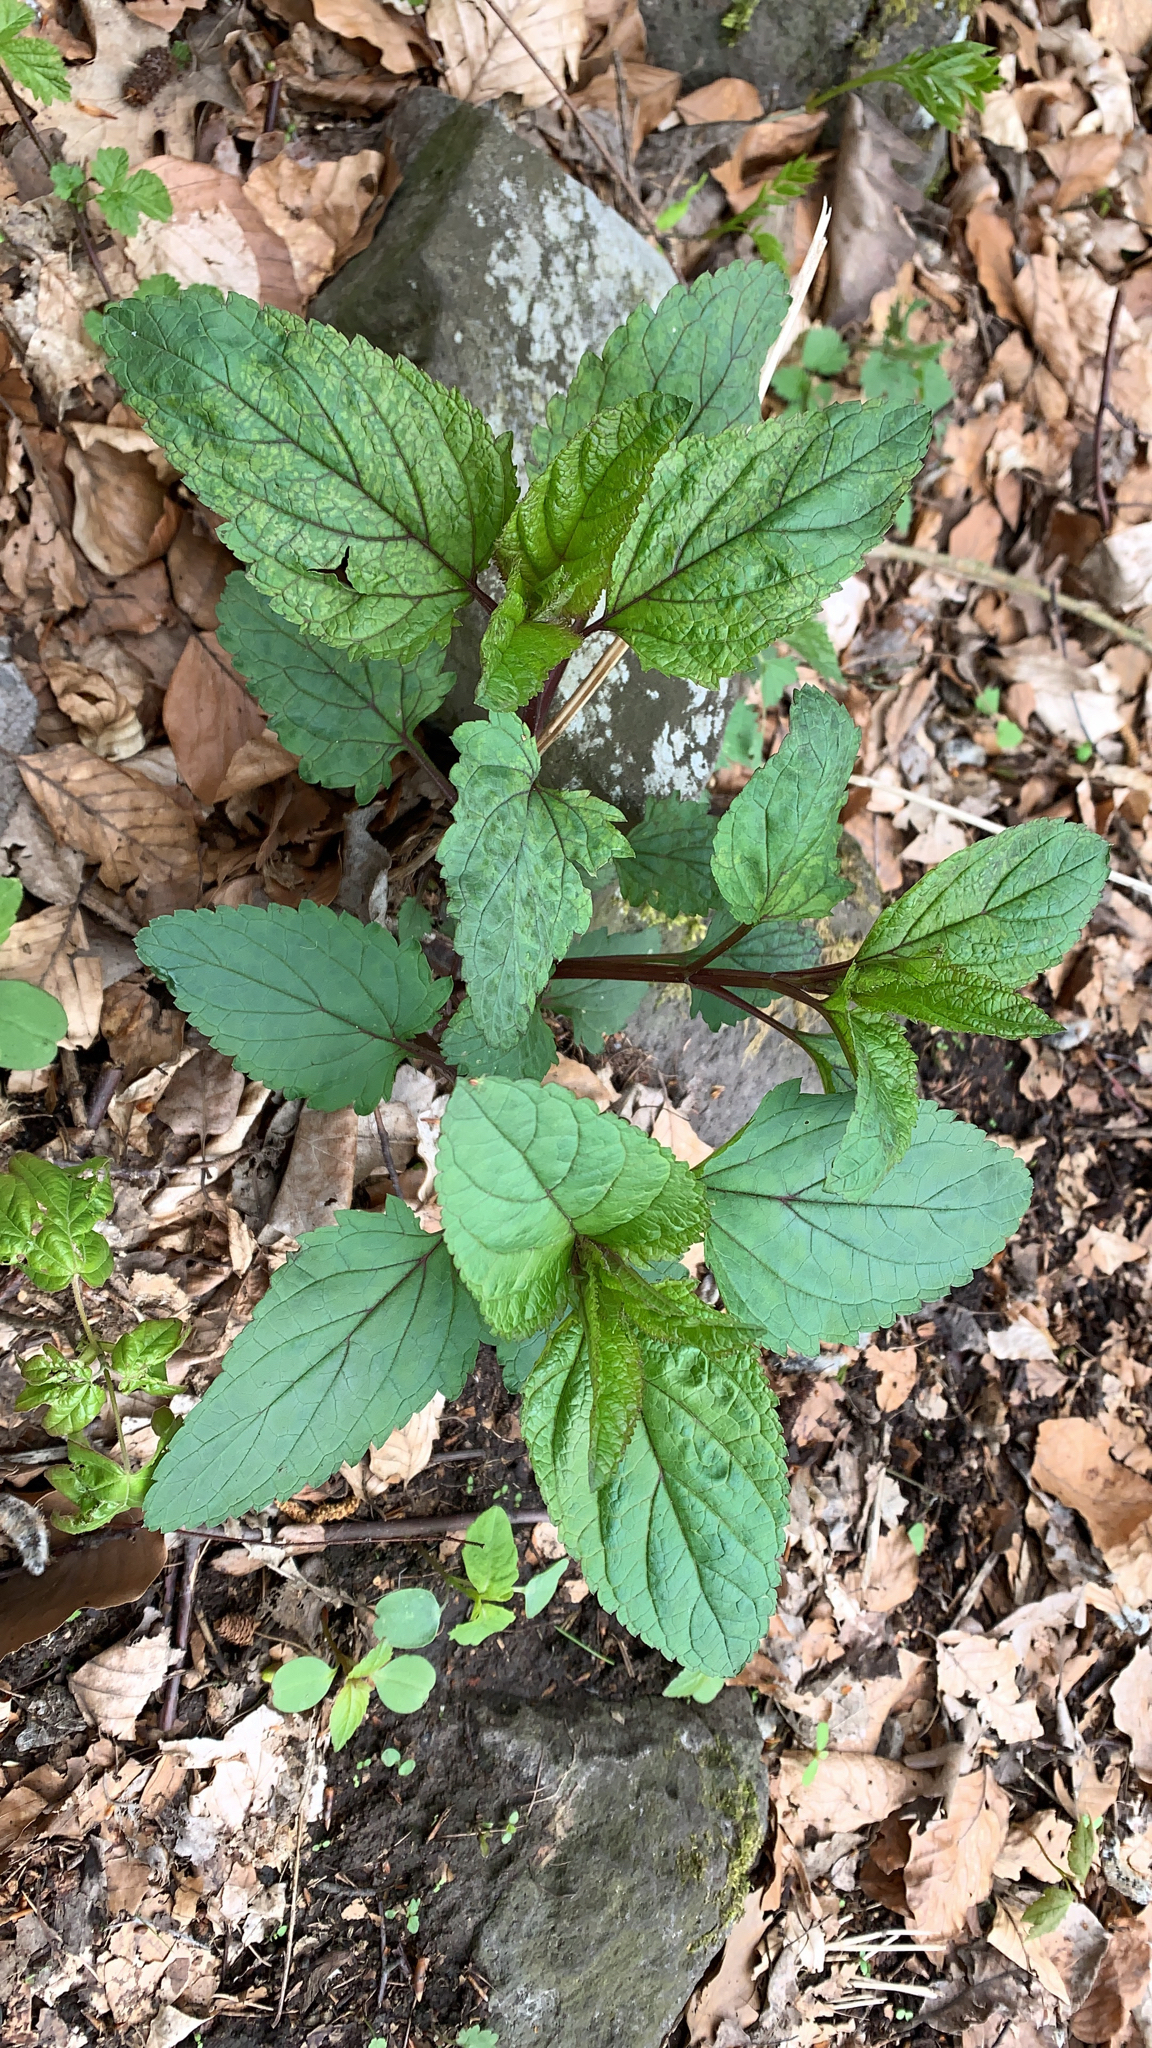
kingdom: Plantae
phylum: Tracheophyta
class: Magnoliopsida
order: Lamiales
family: Scrophulariaceae
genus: Scrophularia
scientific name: Scrophularia nodosa
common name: Common figwort
